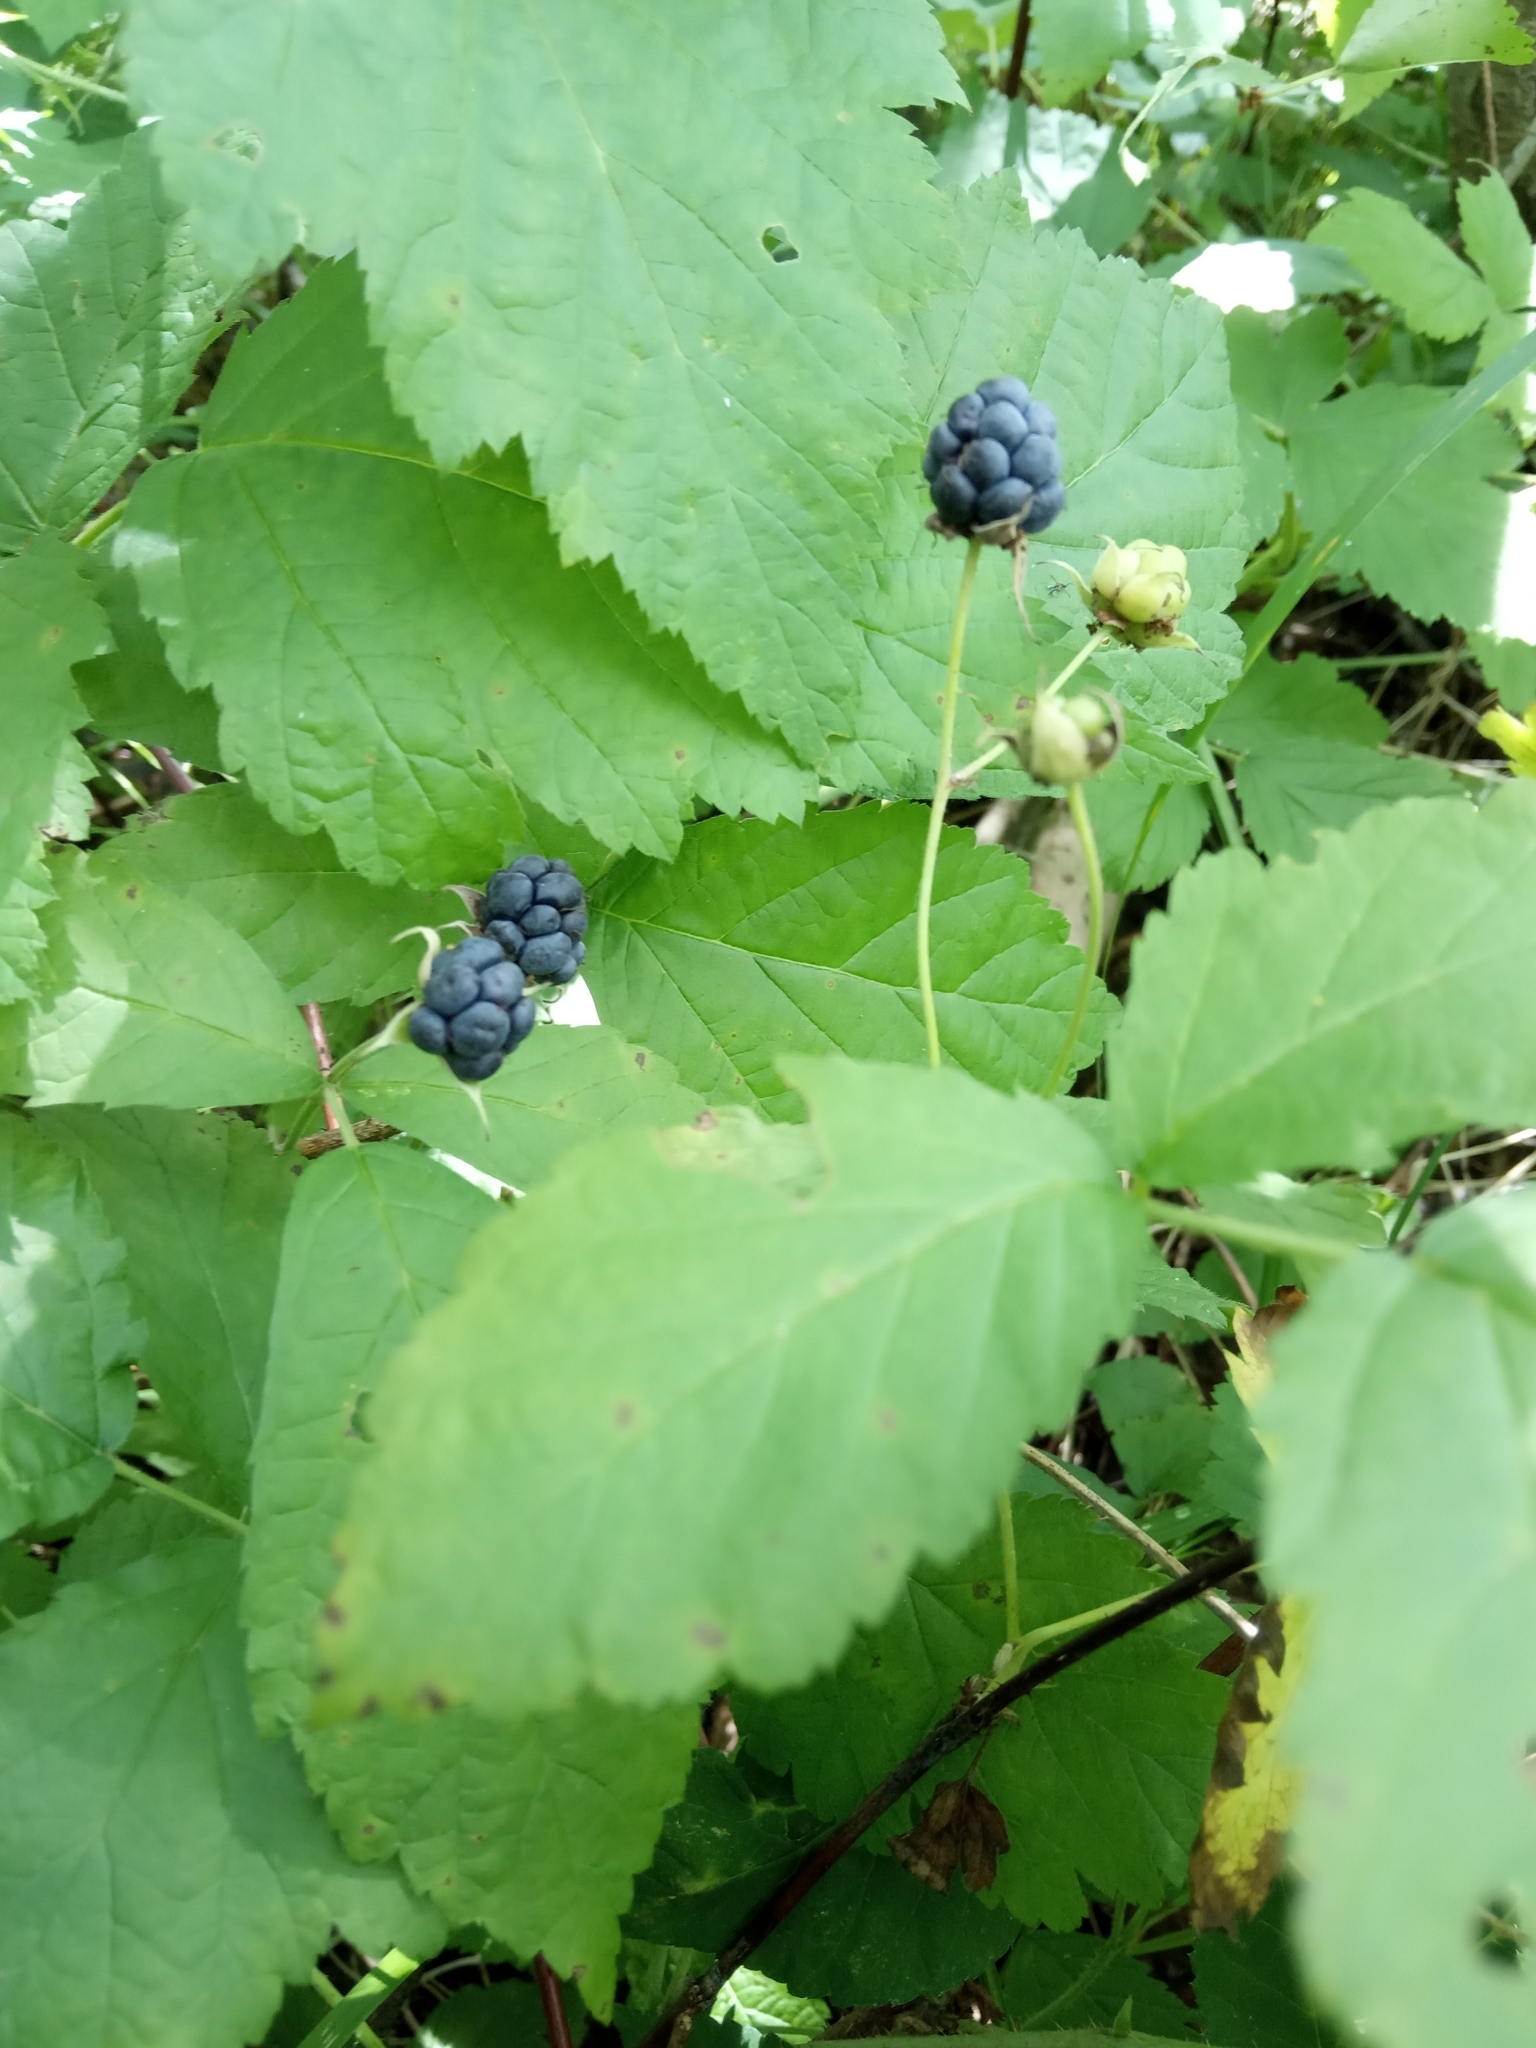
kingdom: Plantae
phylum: Tracheophyta
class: Magnoliopsida
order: Rosales
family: Rosaceae
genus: Rubus
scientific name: Rubus caesius
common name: Dewberry
